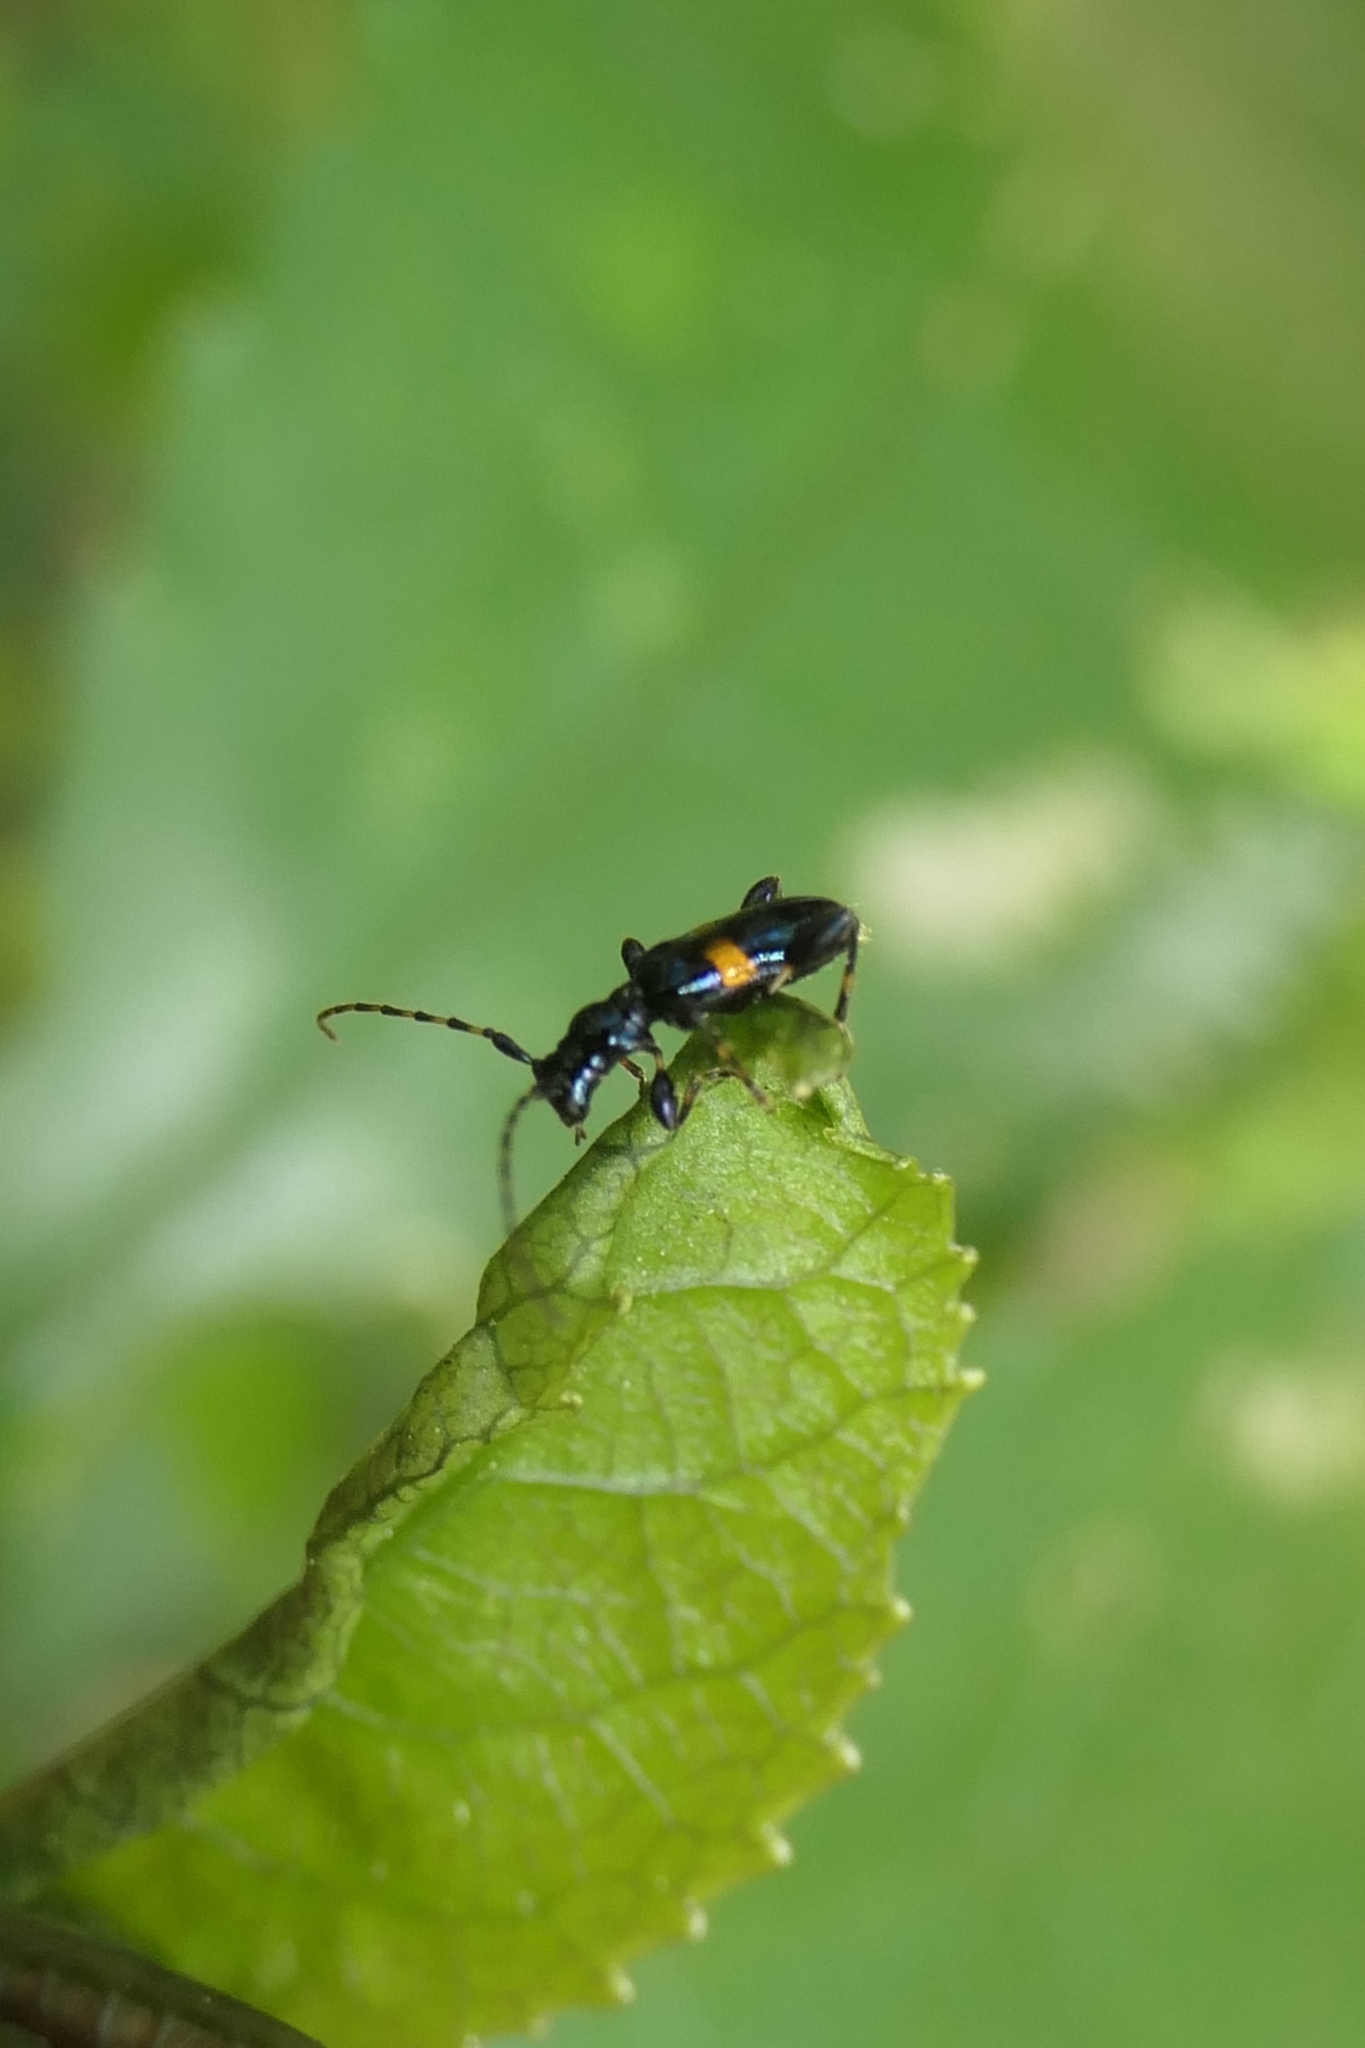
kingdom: Animalia
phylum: Arthropoda
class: Insecta
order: Coleoptera
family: Cerambycidae
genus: Zorion
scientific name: Zorion guttigerum
